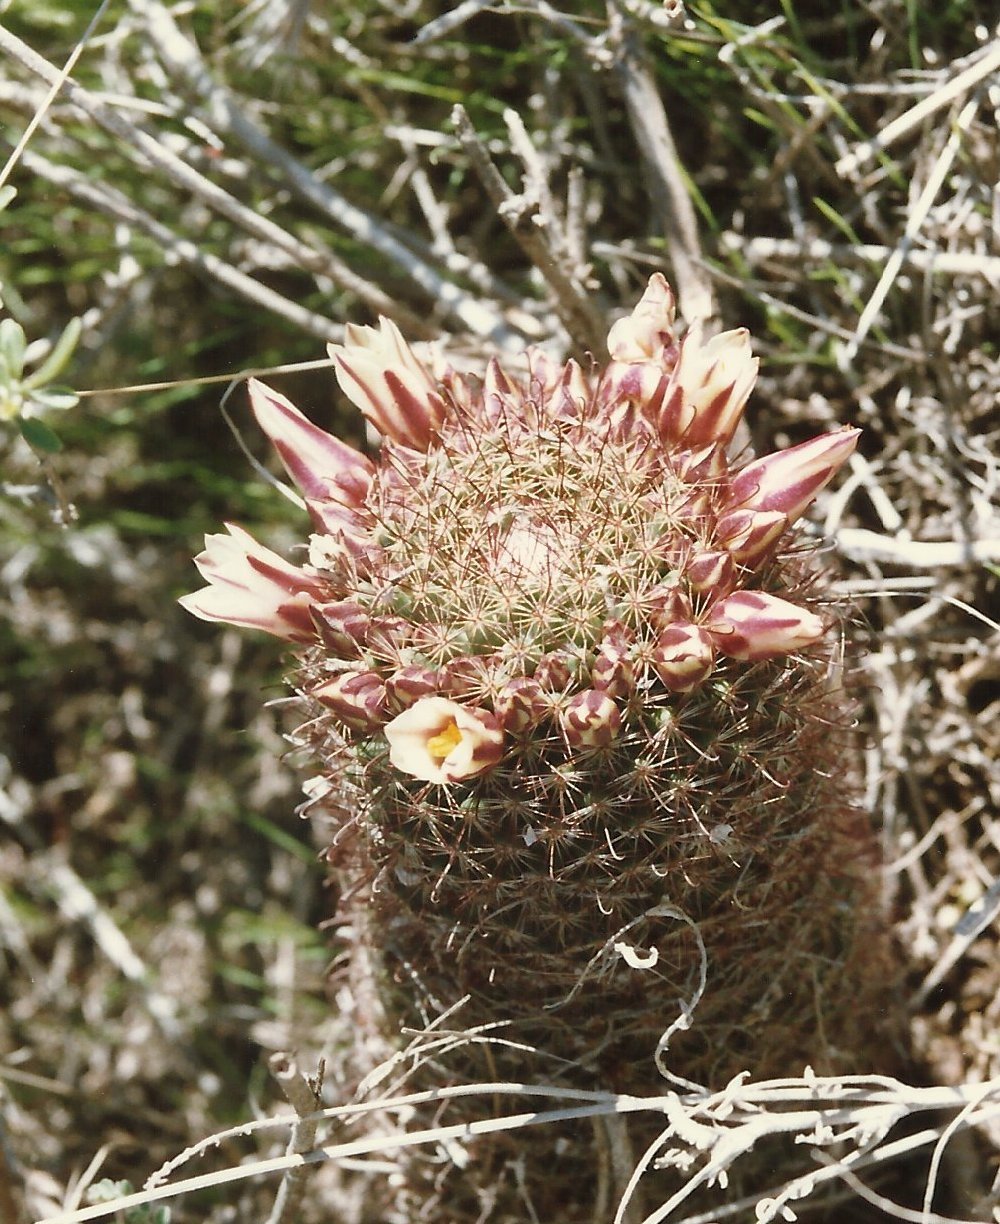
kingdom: Plantae
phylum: Tracheophyta
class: Magnoliopsida
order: Caryophyllales
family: Cactaceae
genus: Cochemiea
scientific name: Cochemiea dioica
